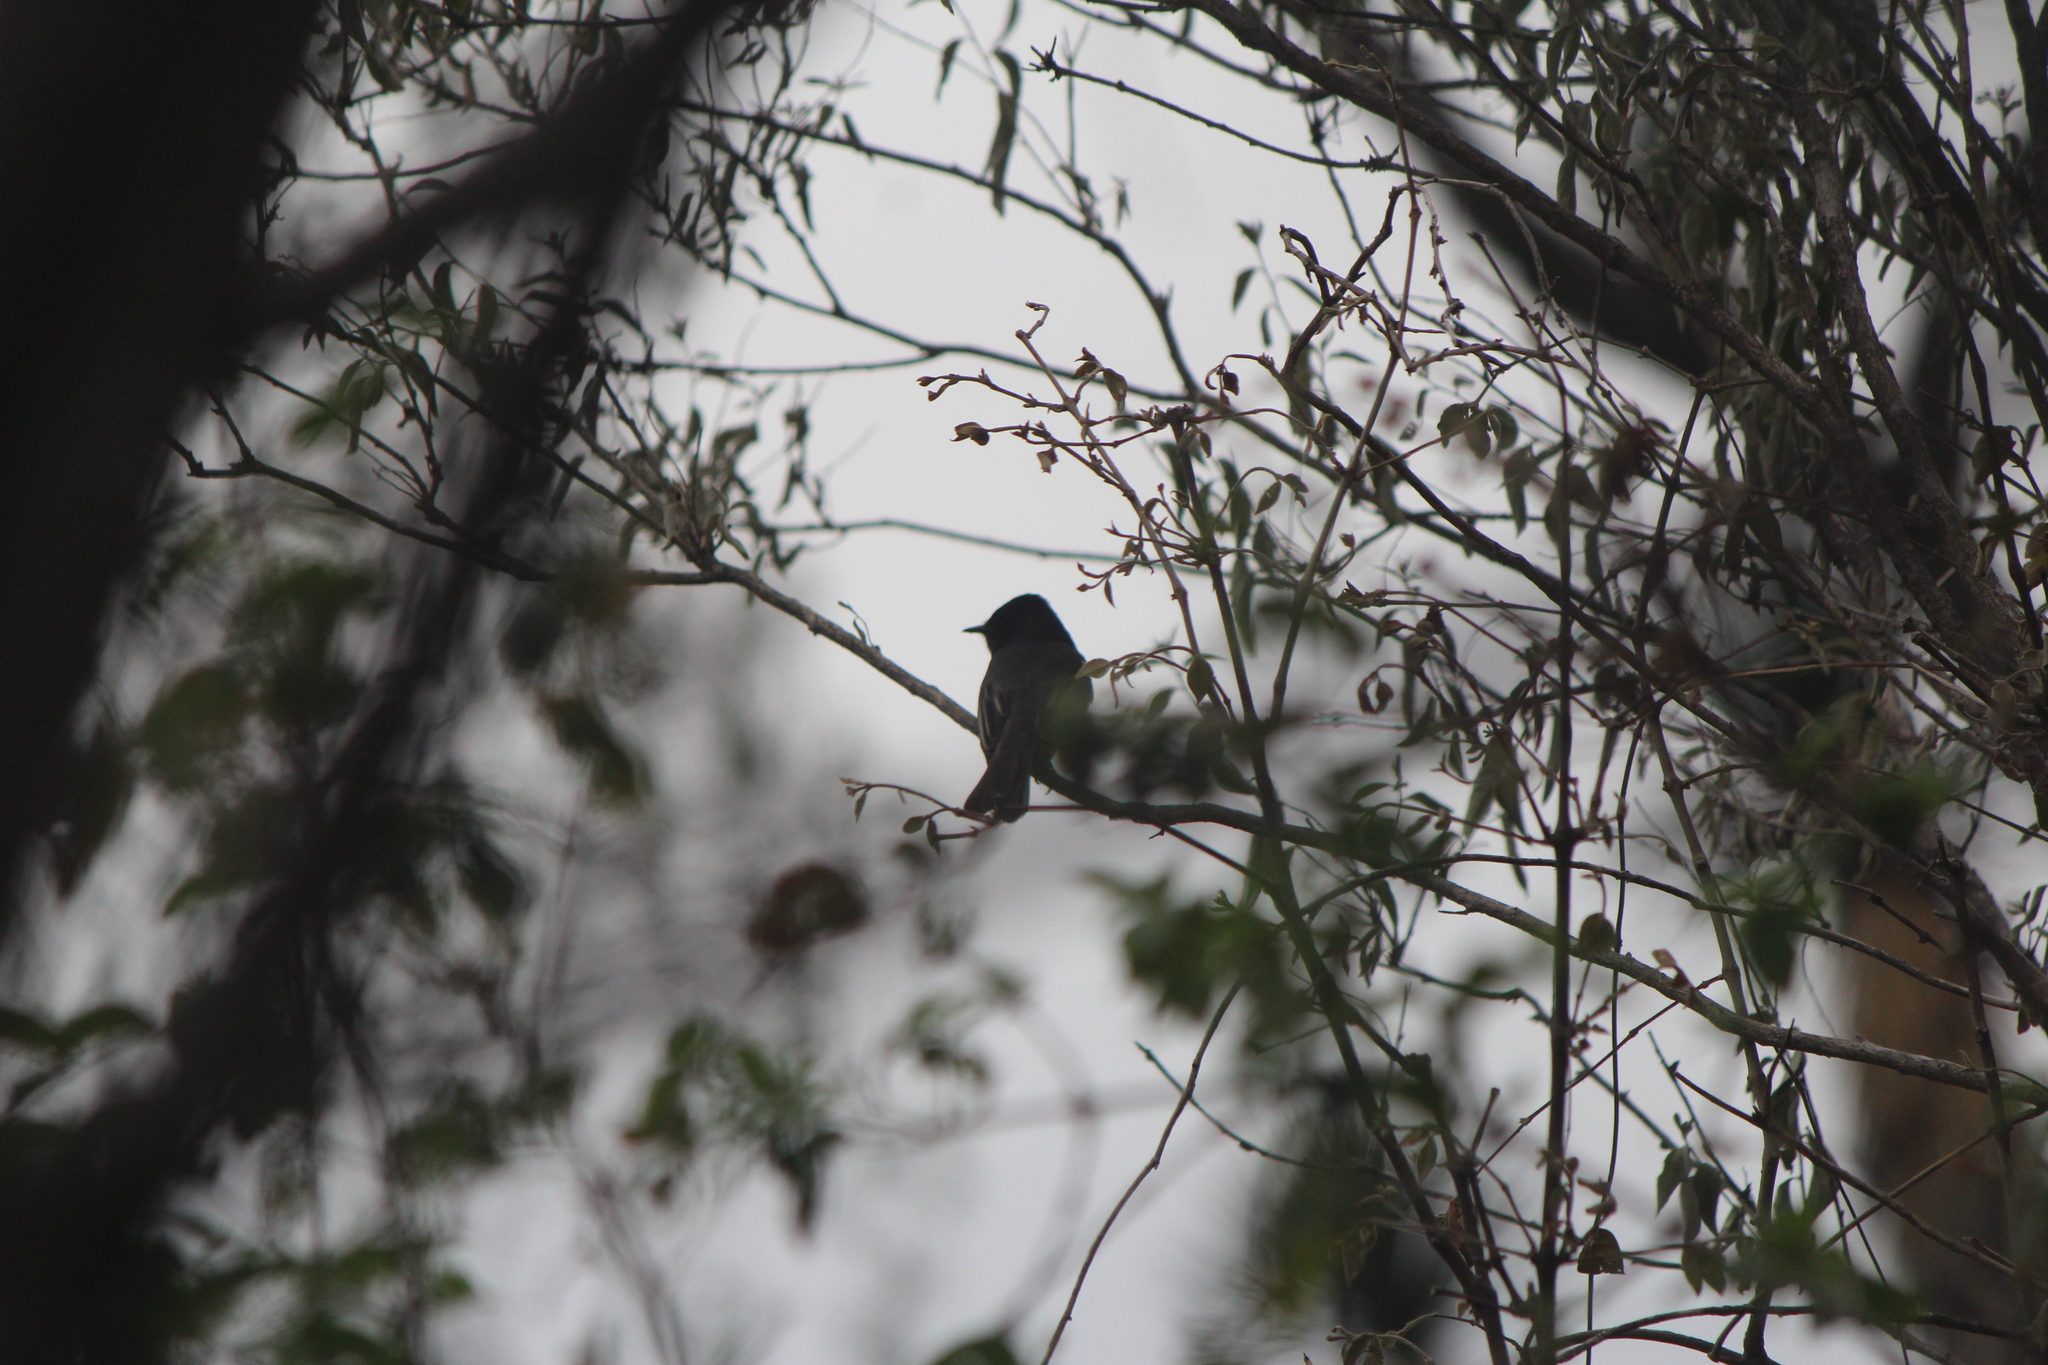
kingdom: Animalia
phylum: Chordata
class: Aves
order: Passeriformes
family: Tyrannidae
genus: Sayornis
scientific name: Sayornis nigricans
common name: Black phoebe
